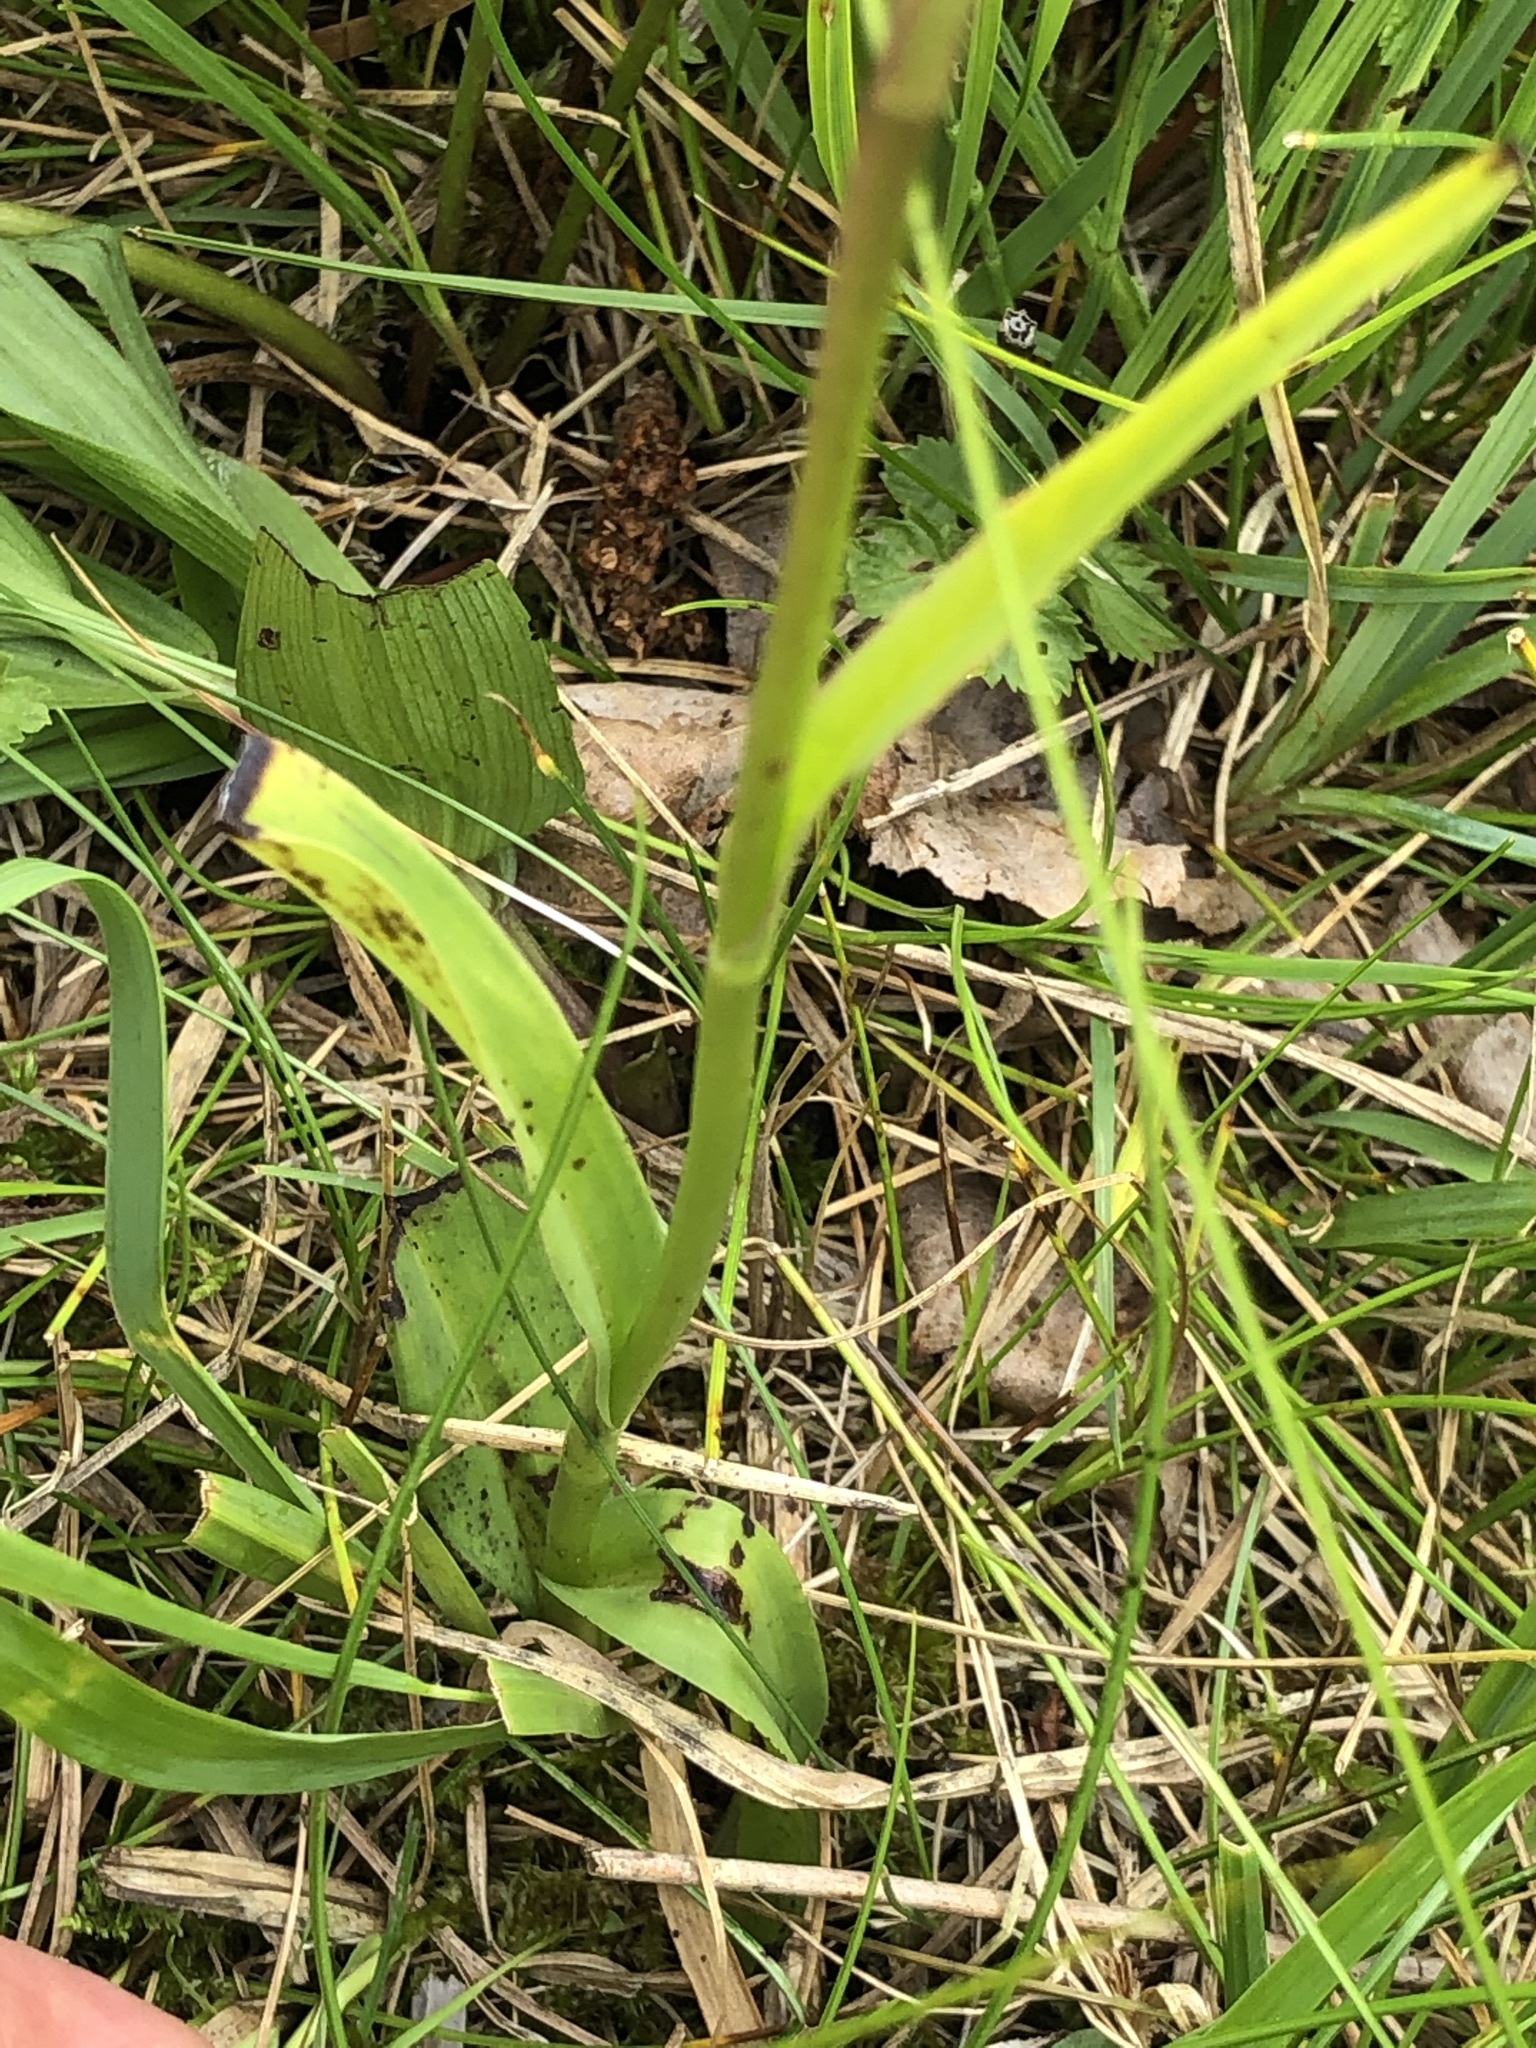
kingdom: Plantae
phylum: Tracheophyta
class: Liliopsida
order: Asparagales
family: Orchidaceae
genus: Dactylorhiza
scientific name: Dactylorhiza maculata
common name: Heath spotted-orchid
